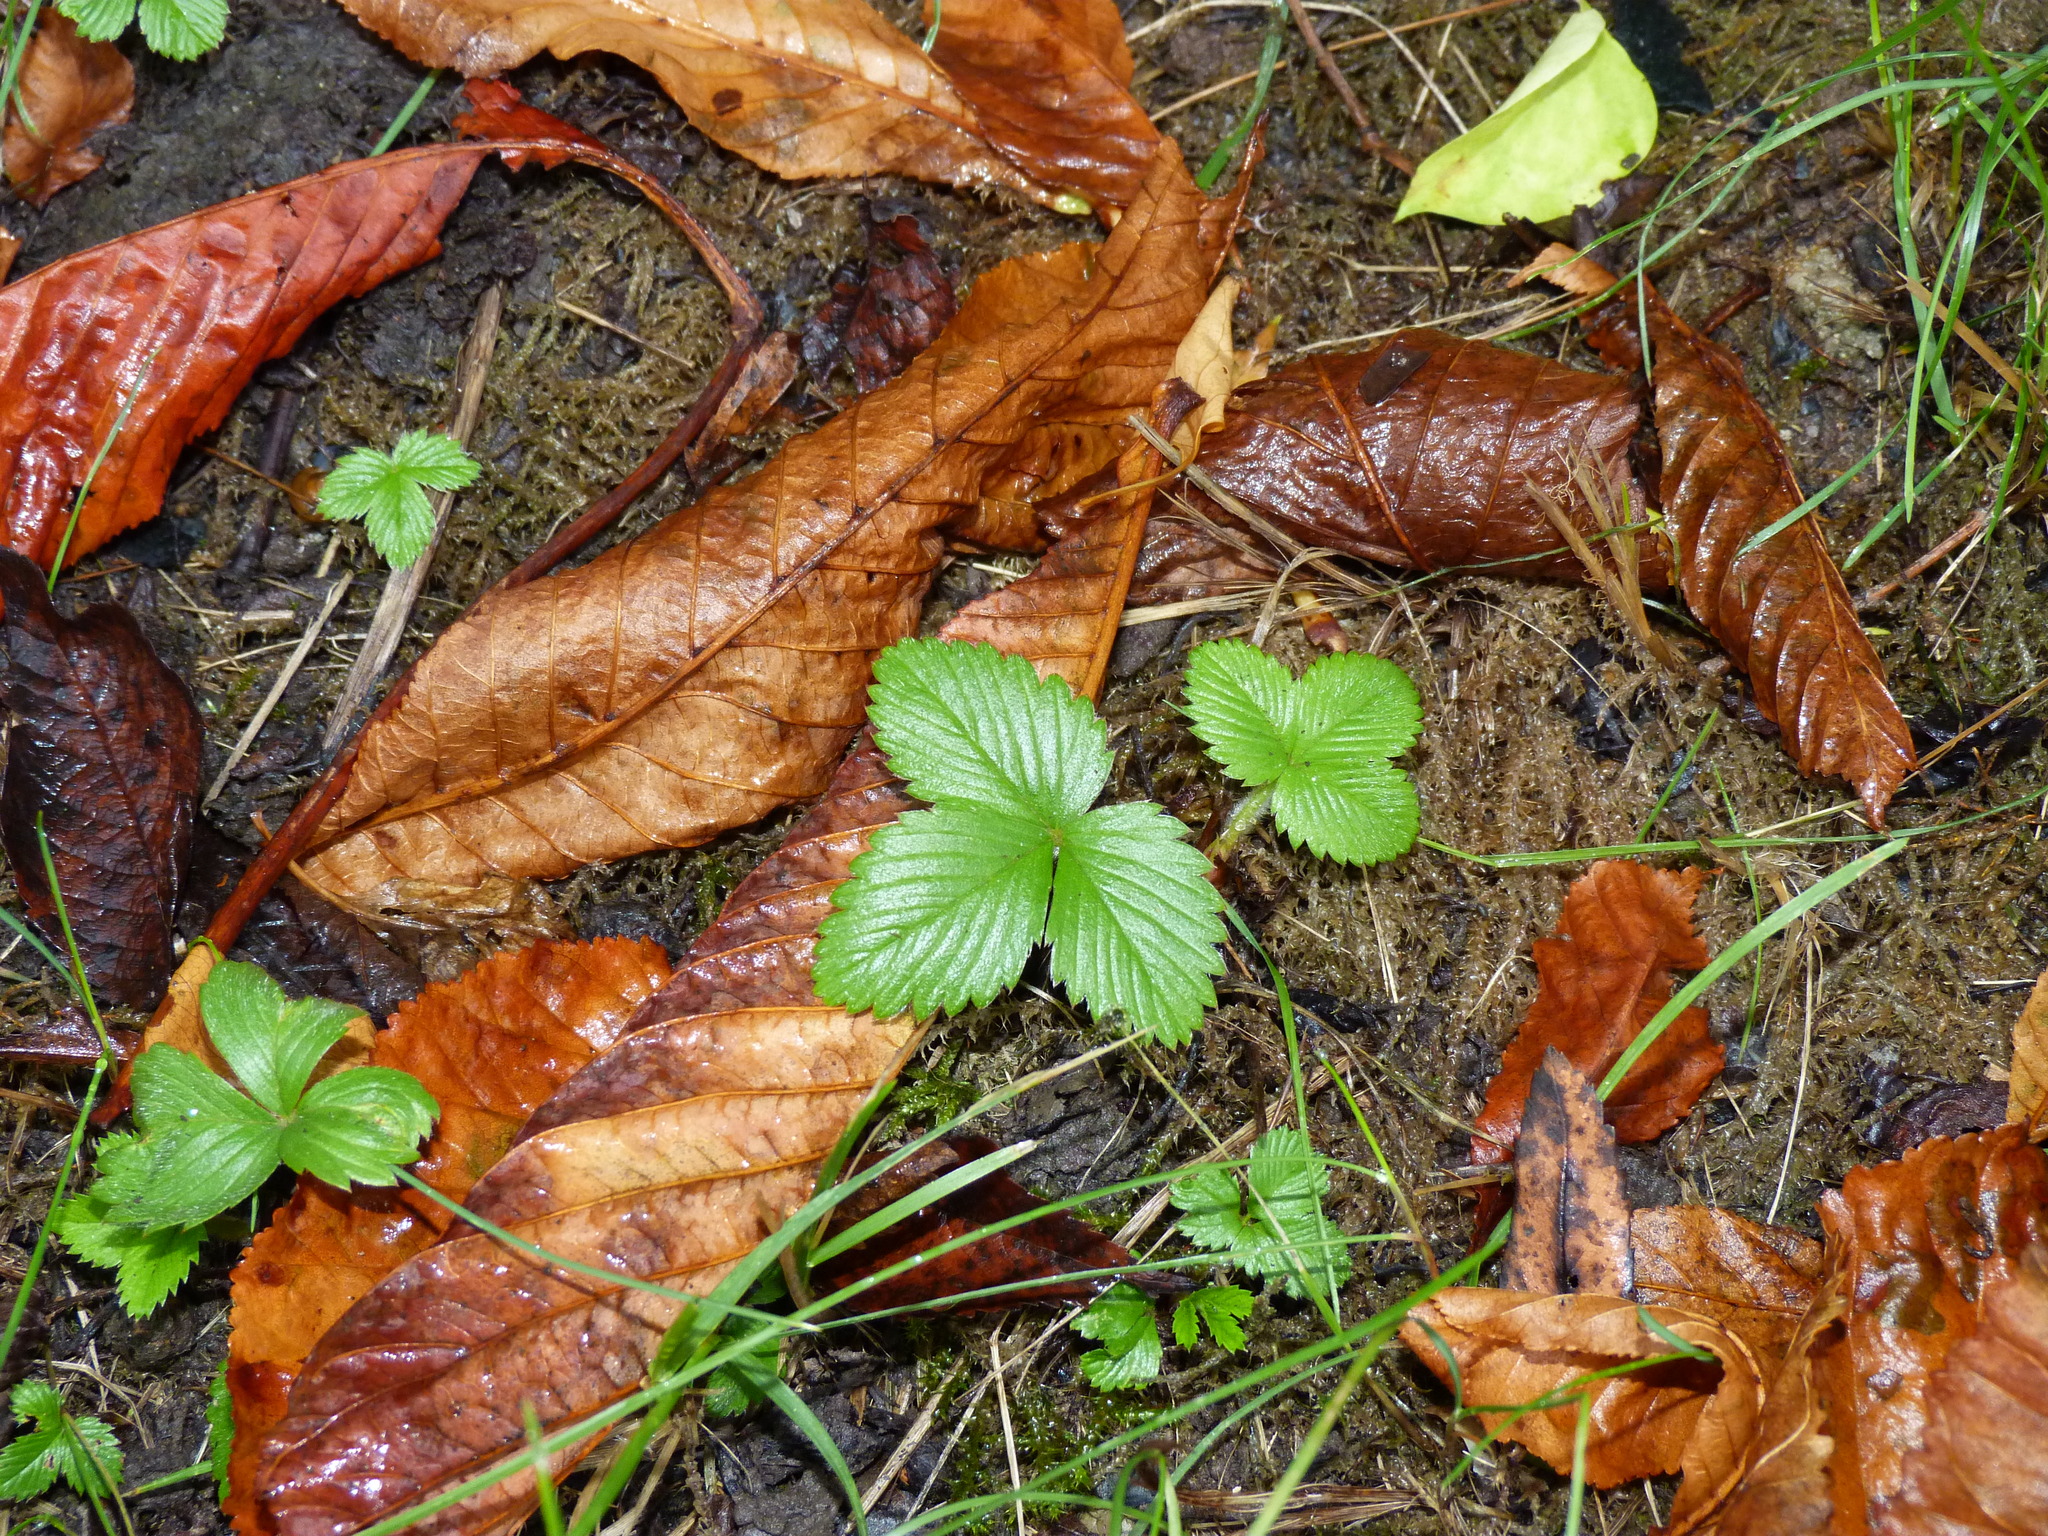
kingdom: Plantae
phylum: Tracheophyta
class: Magnoliopsida
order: Rosales
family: Rosaceae
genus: Fragaria
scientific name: Fragaria vesca
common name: Wild strawberry
